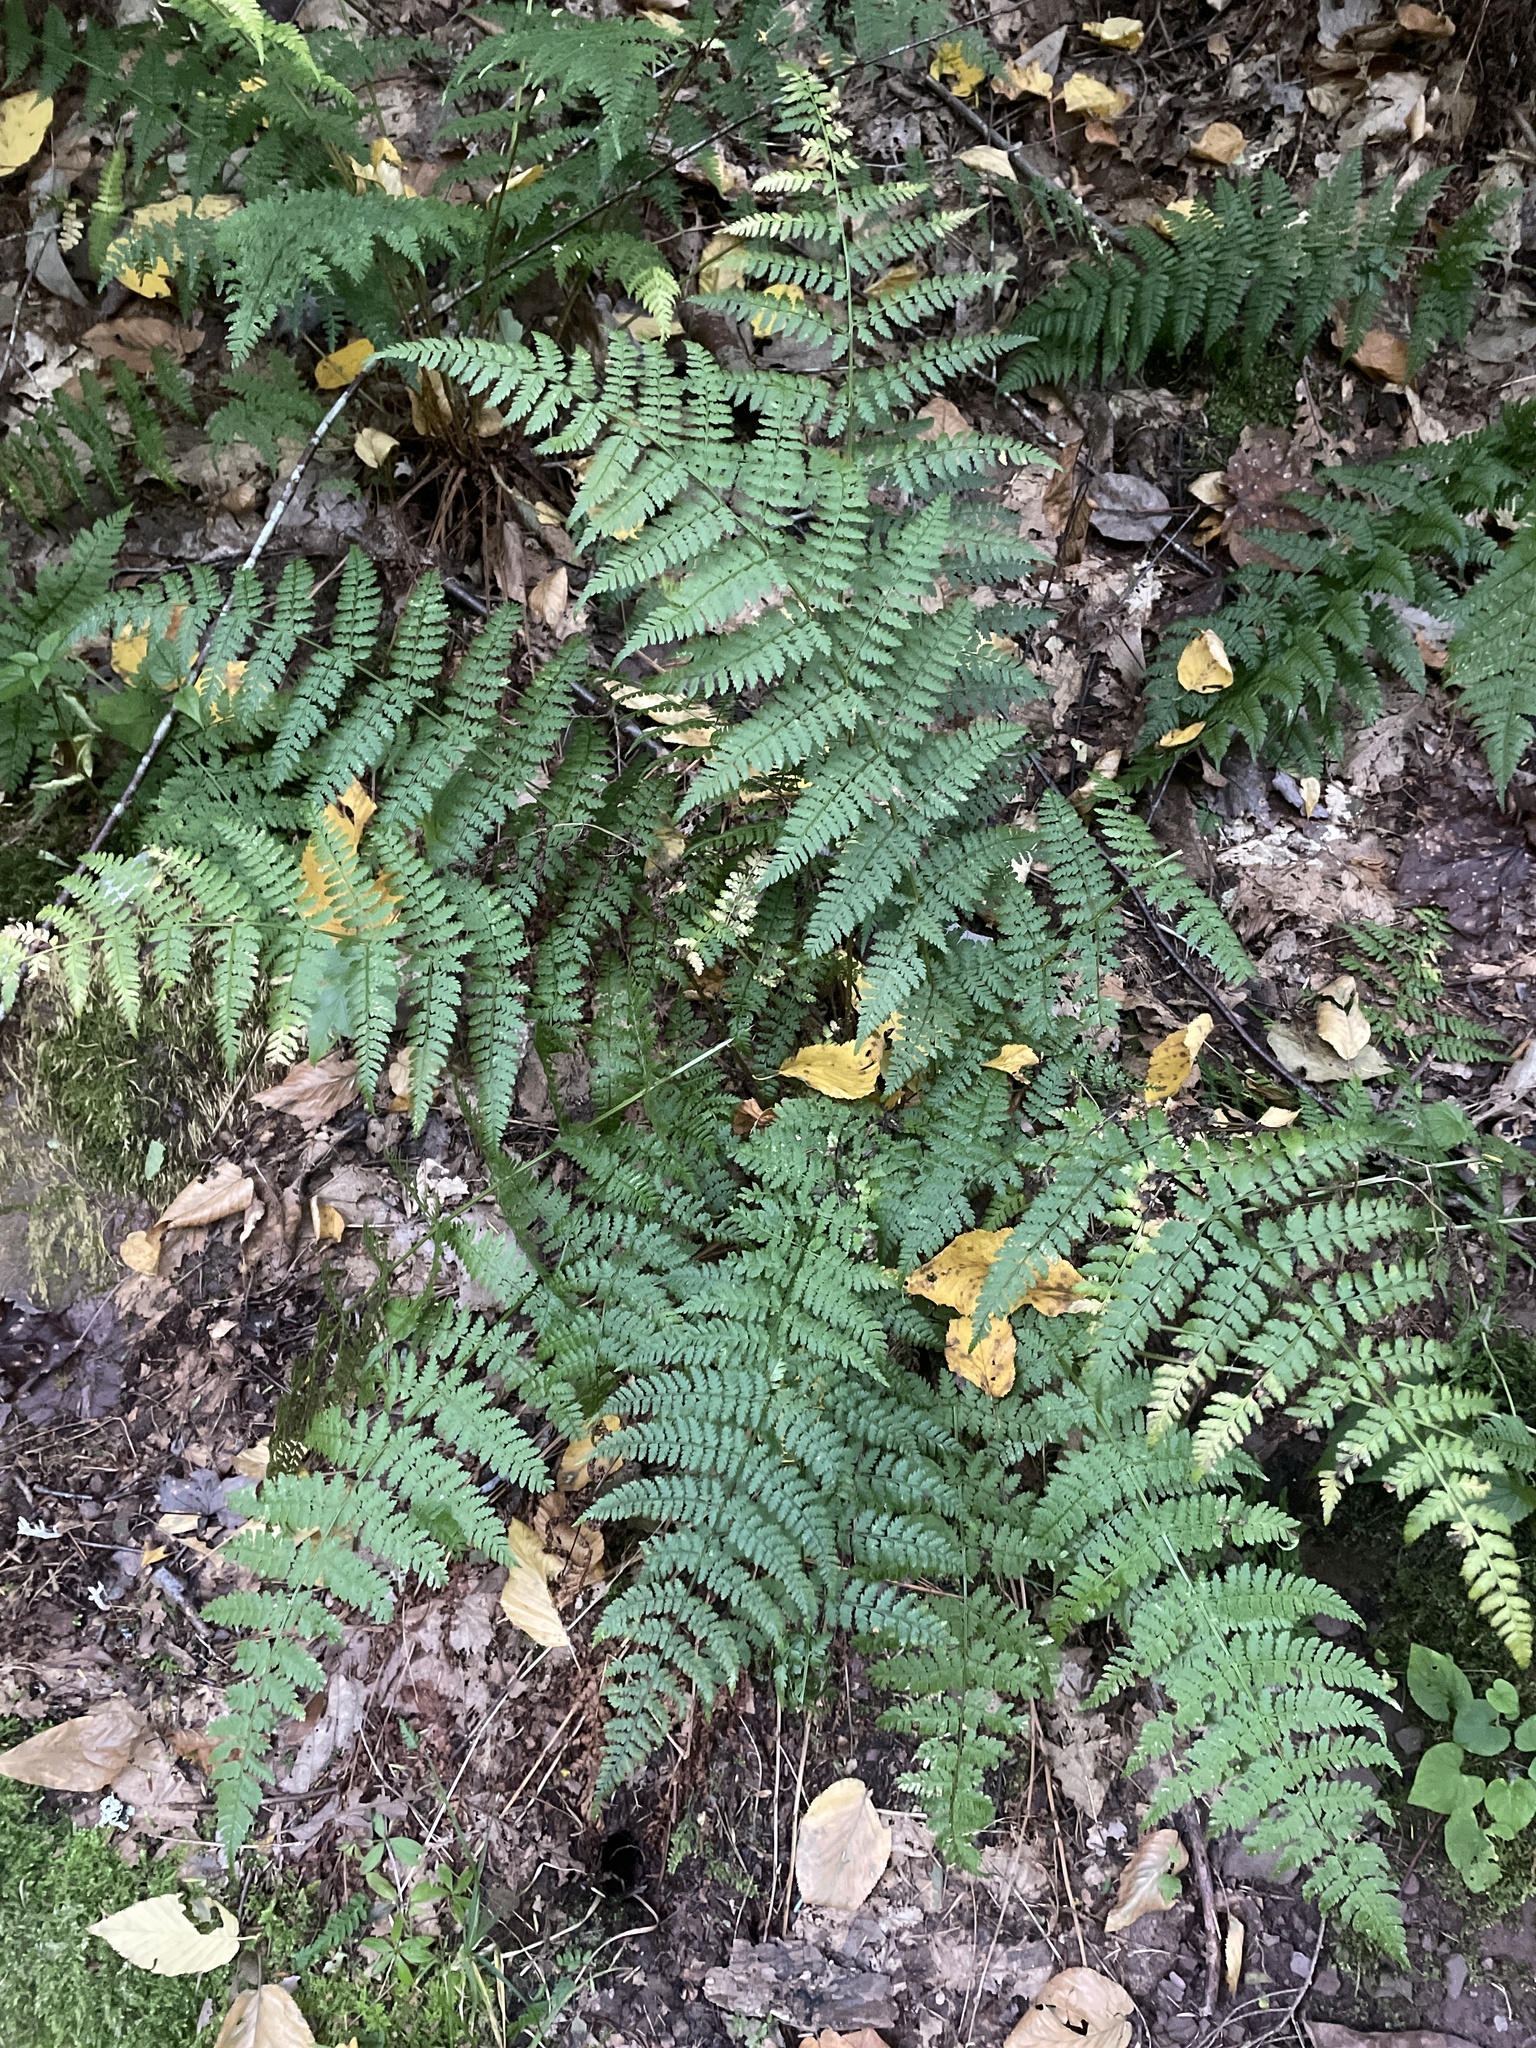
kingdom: Plantae
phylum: Tracheophyta
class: Polypodiopsida
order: Polypodiales
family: Dryopteridaceae
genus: Dryopteris
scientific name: Dryopteris intermedia
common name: Evergreen wood fern
